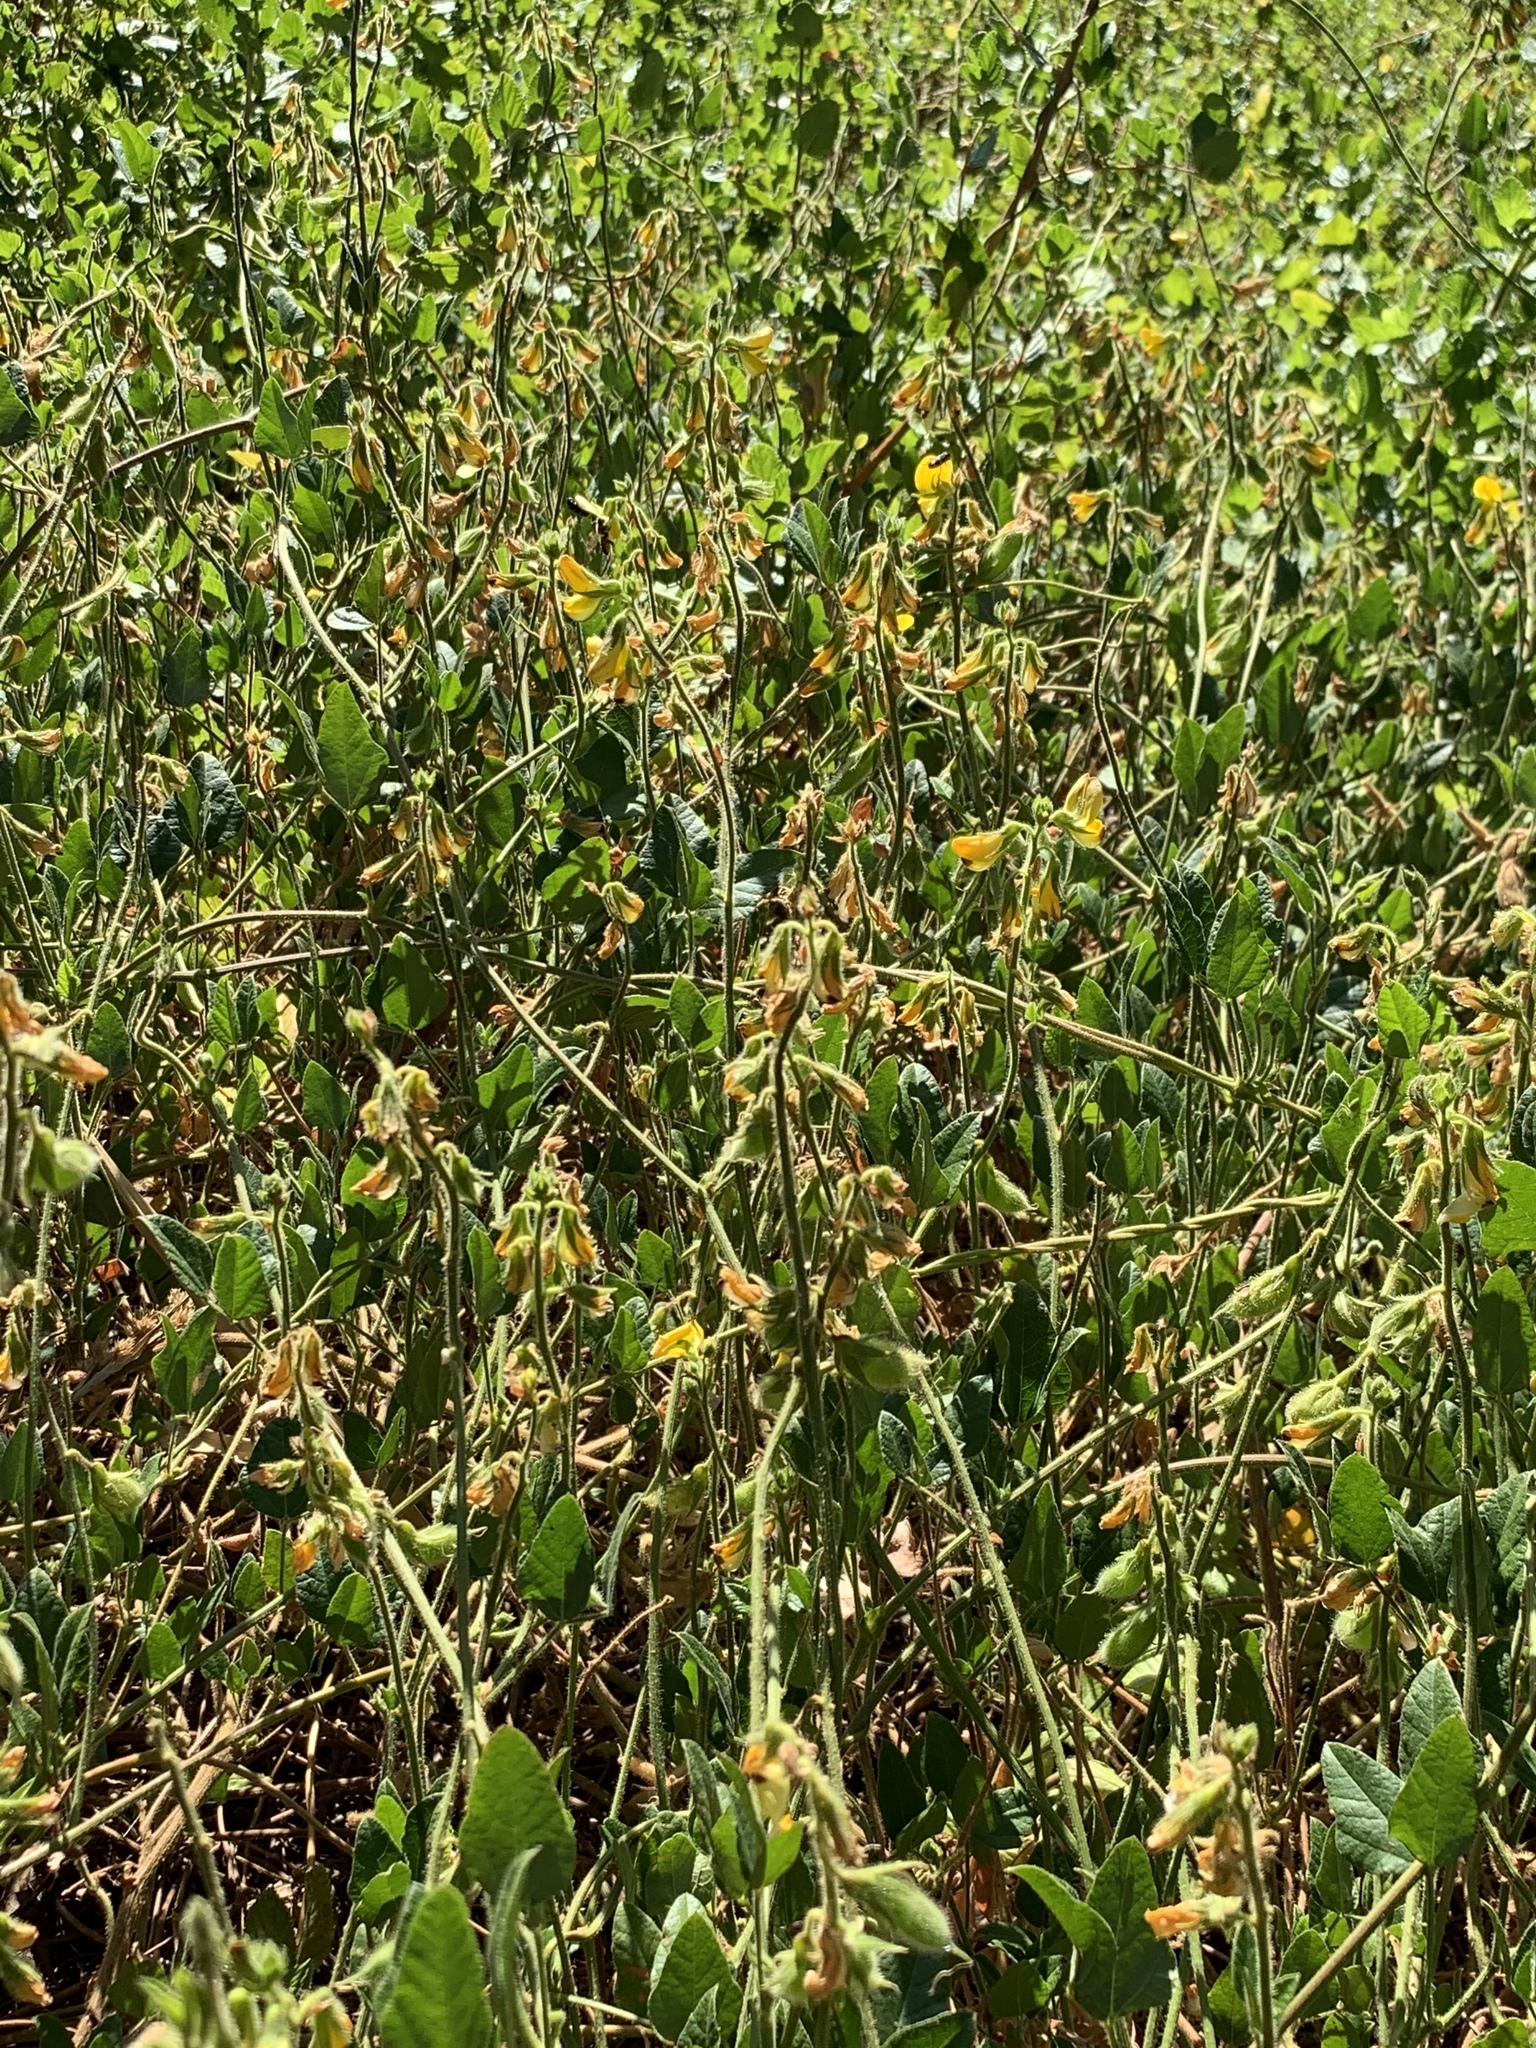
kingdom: Plantae
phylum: Tracheophyta
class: Magnoliopsida
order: Fabales
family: Fabaceae
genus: Bolusafra
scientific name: Bolusafra bituminosa
